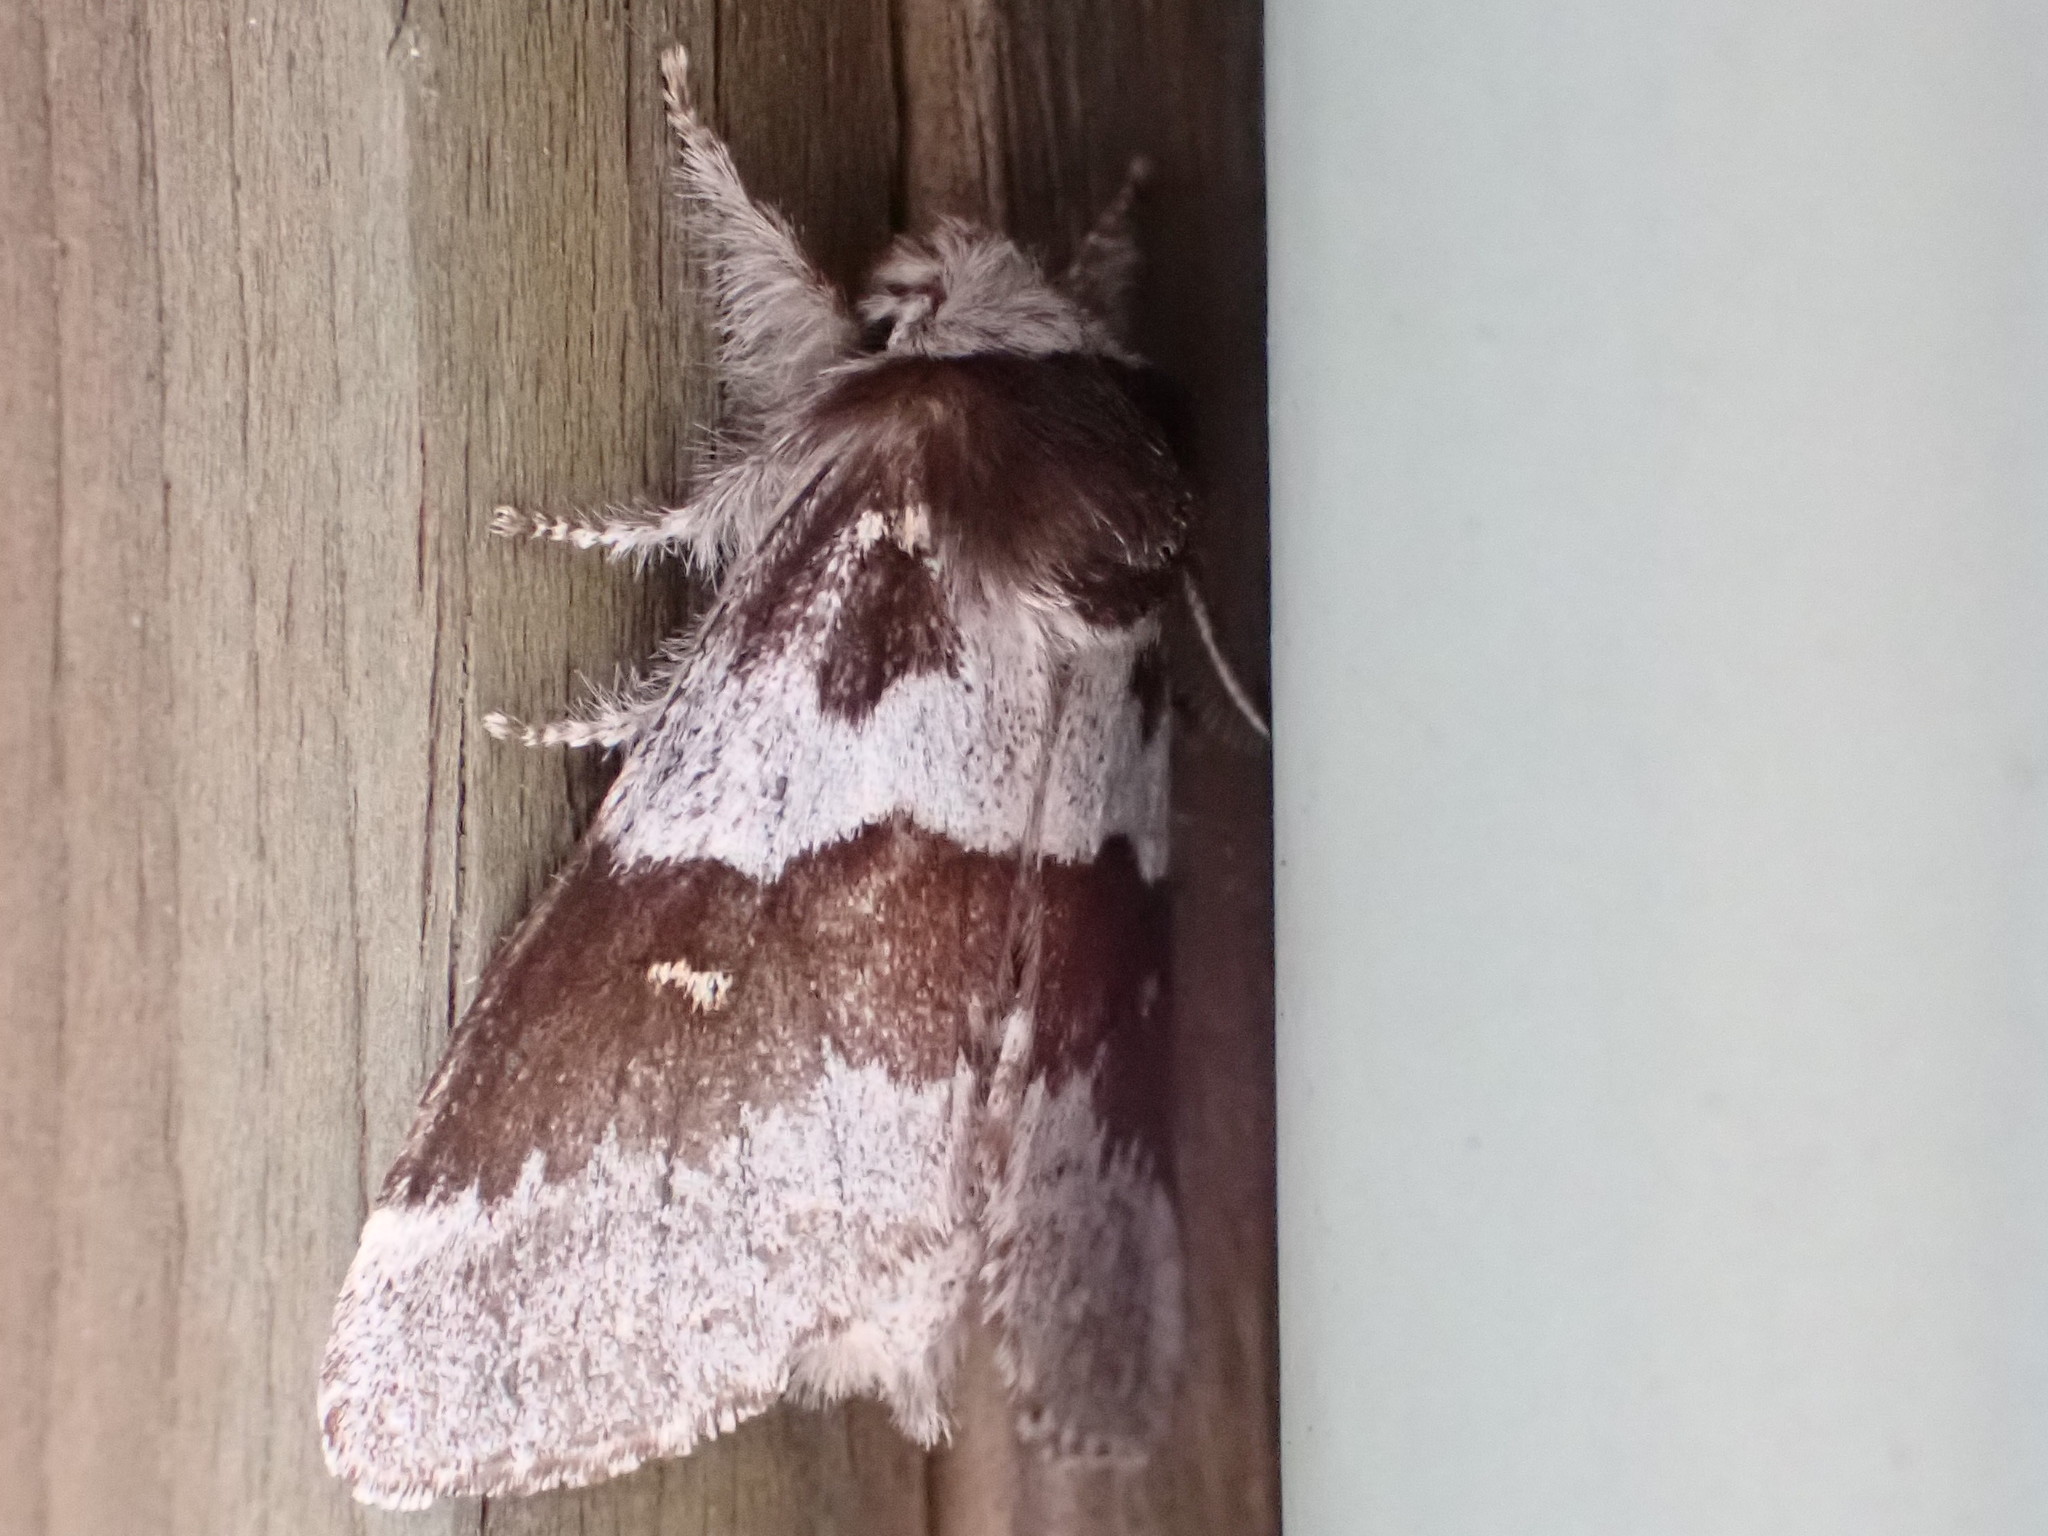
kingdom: Animalia
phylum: Arthropoda
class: Insecta
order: Lepidoptera
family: Notodontidae
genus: Gluphisia
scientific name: Gluphisia avimacula
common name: Four-spotted gluphisia moth
